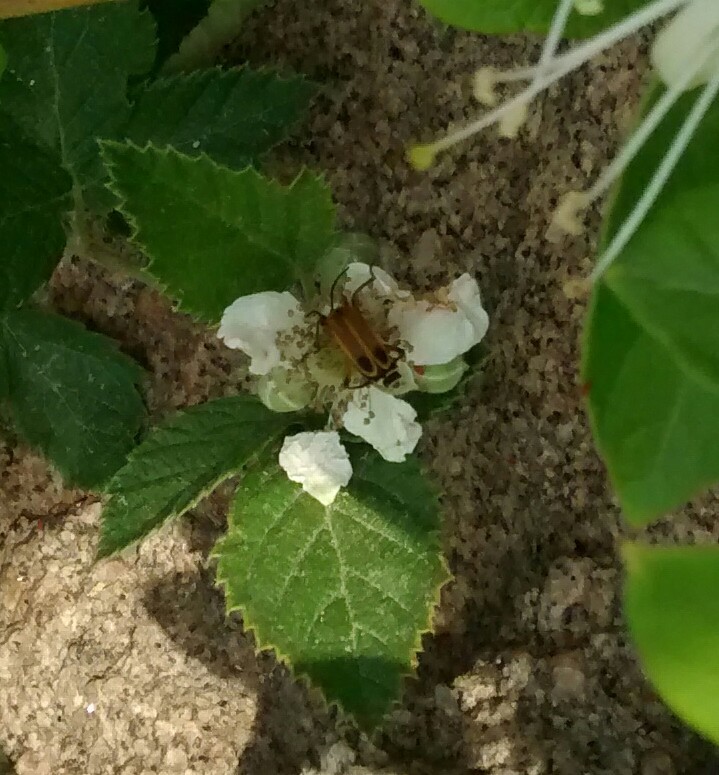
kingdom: Animalia
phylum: Arthropoda
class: Insecta
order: Coleoptera
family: Cantharidae
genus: Chauliognathus
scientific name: Chauliognathus marginatus
